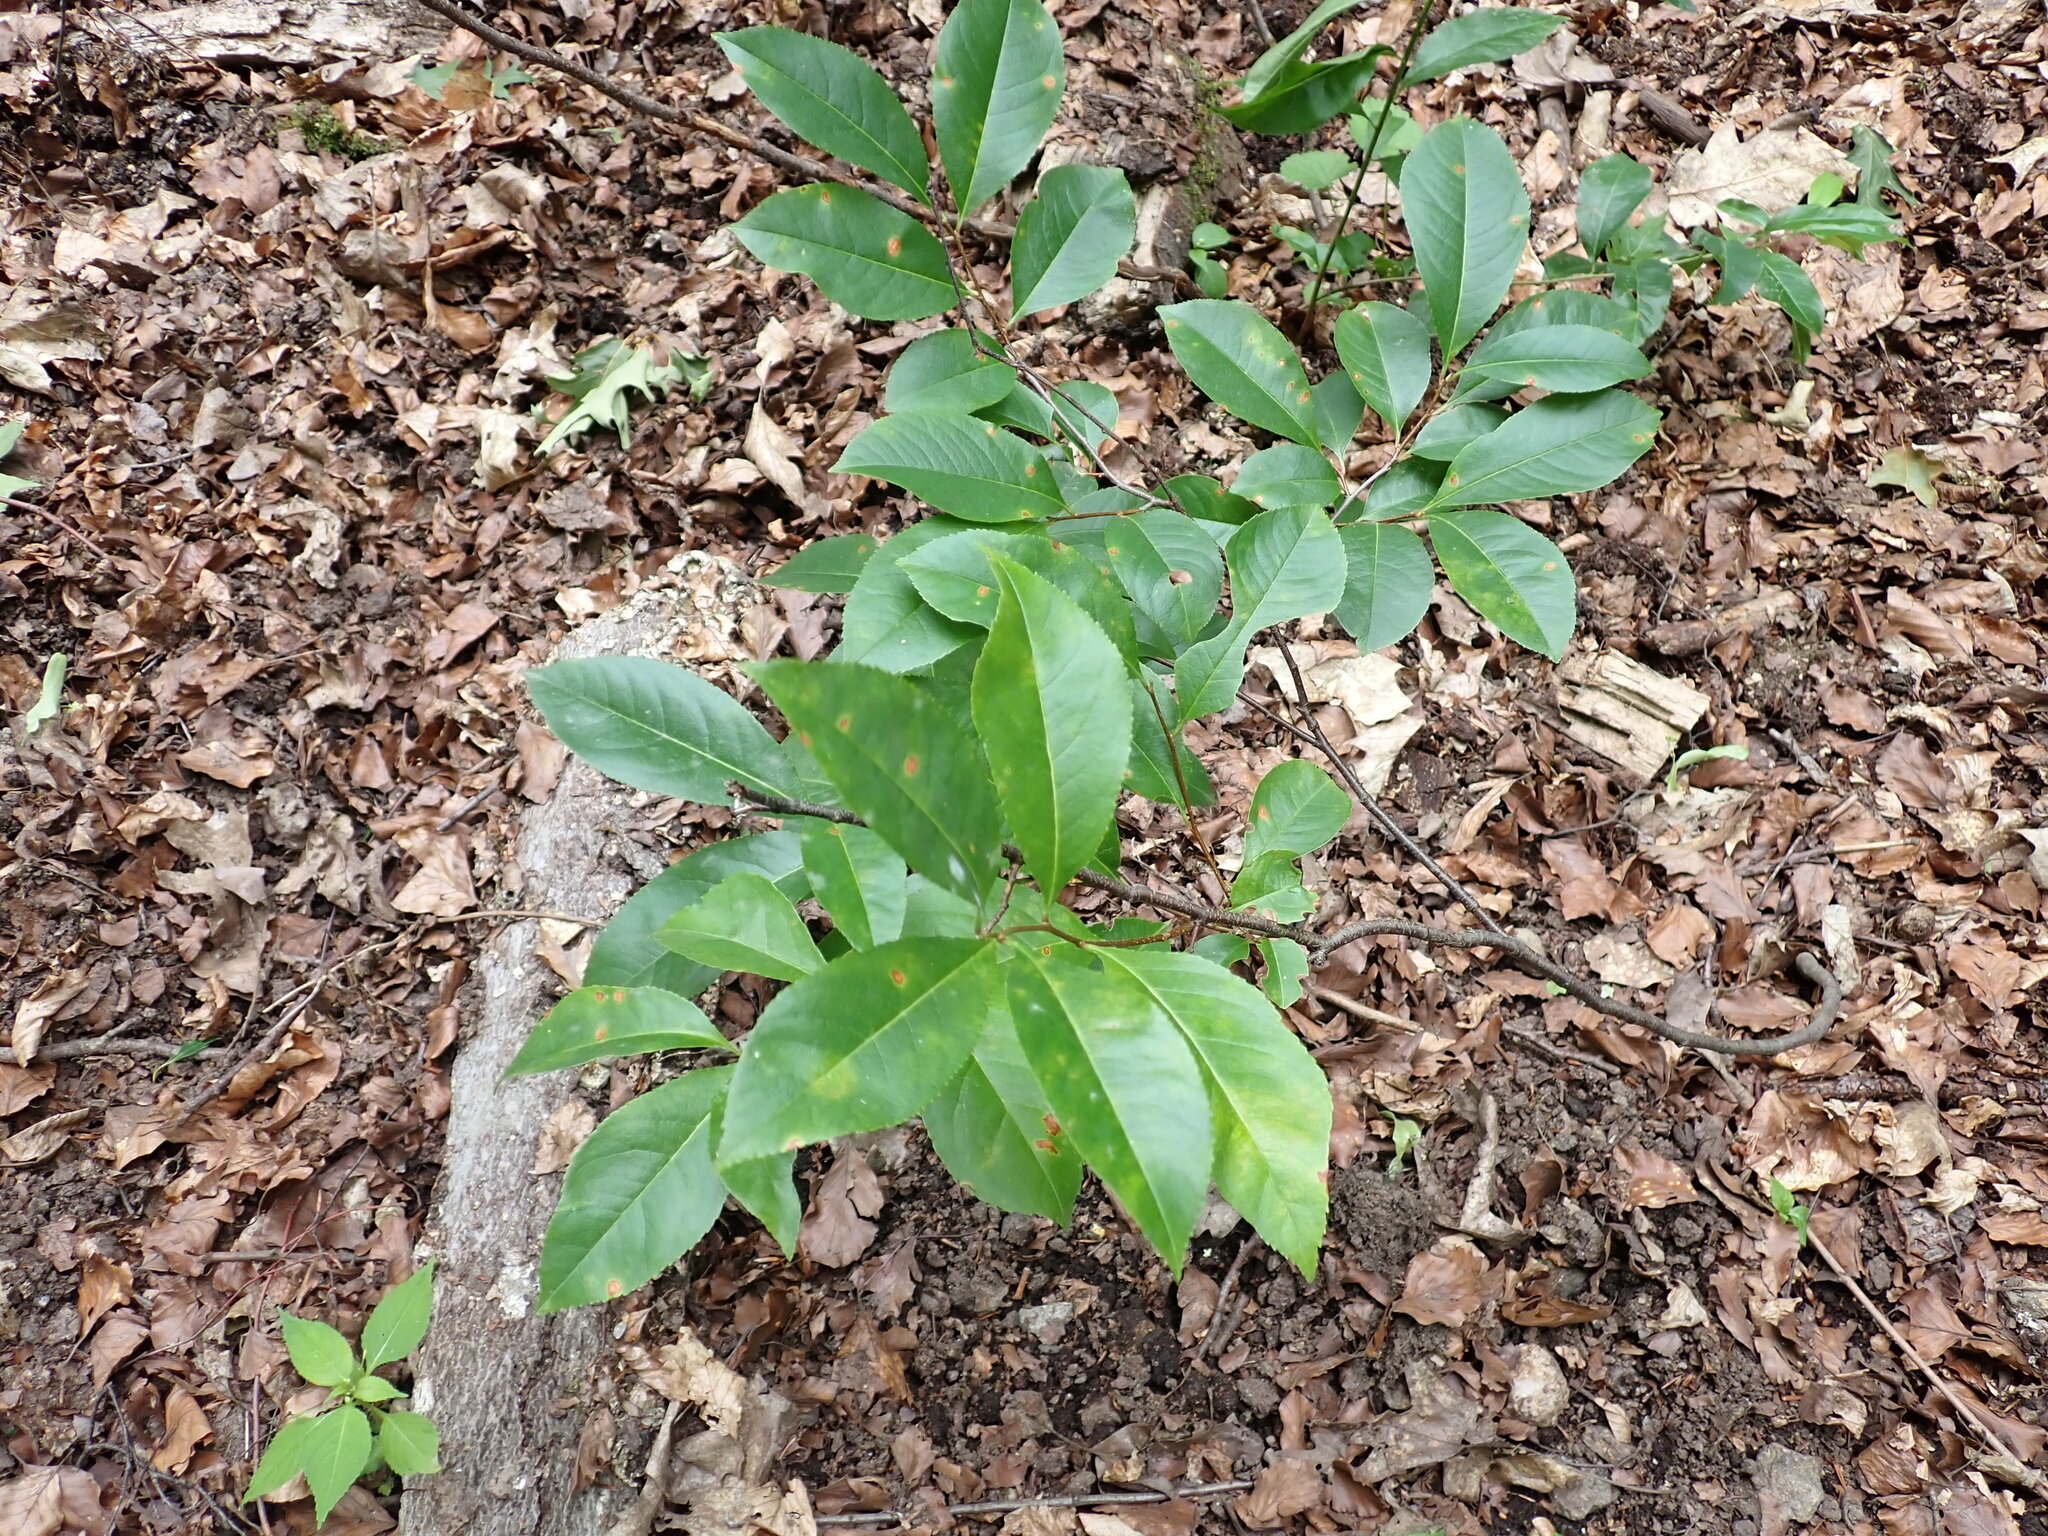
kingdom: Plantae
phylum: Tracheophyta
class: Magnoliopsida
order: Rosales
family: Rosaceae
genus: Prunus
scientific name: Prunus serotina
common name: Black cherry
